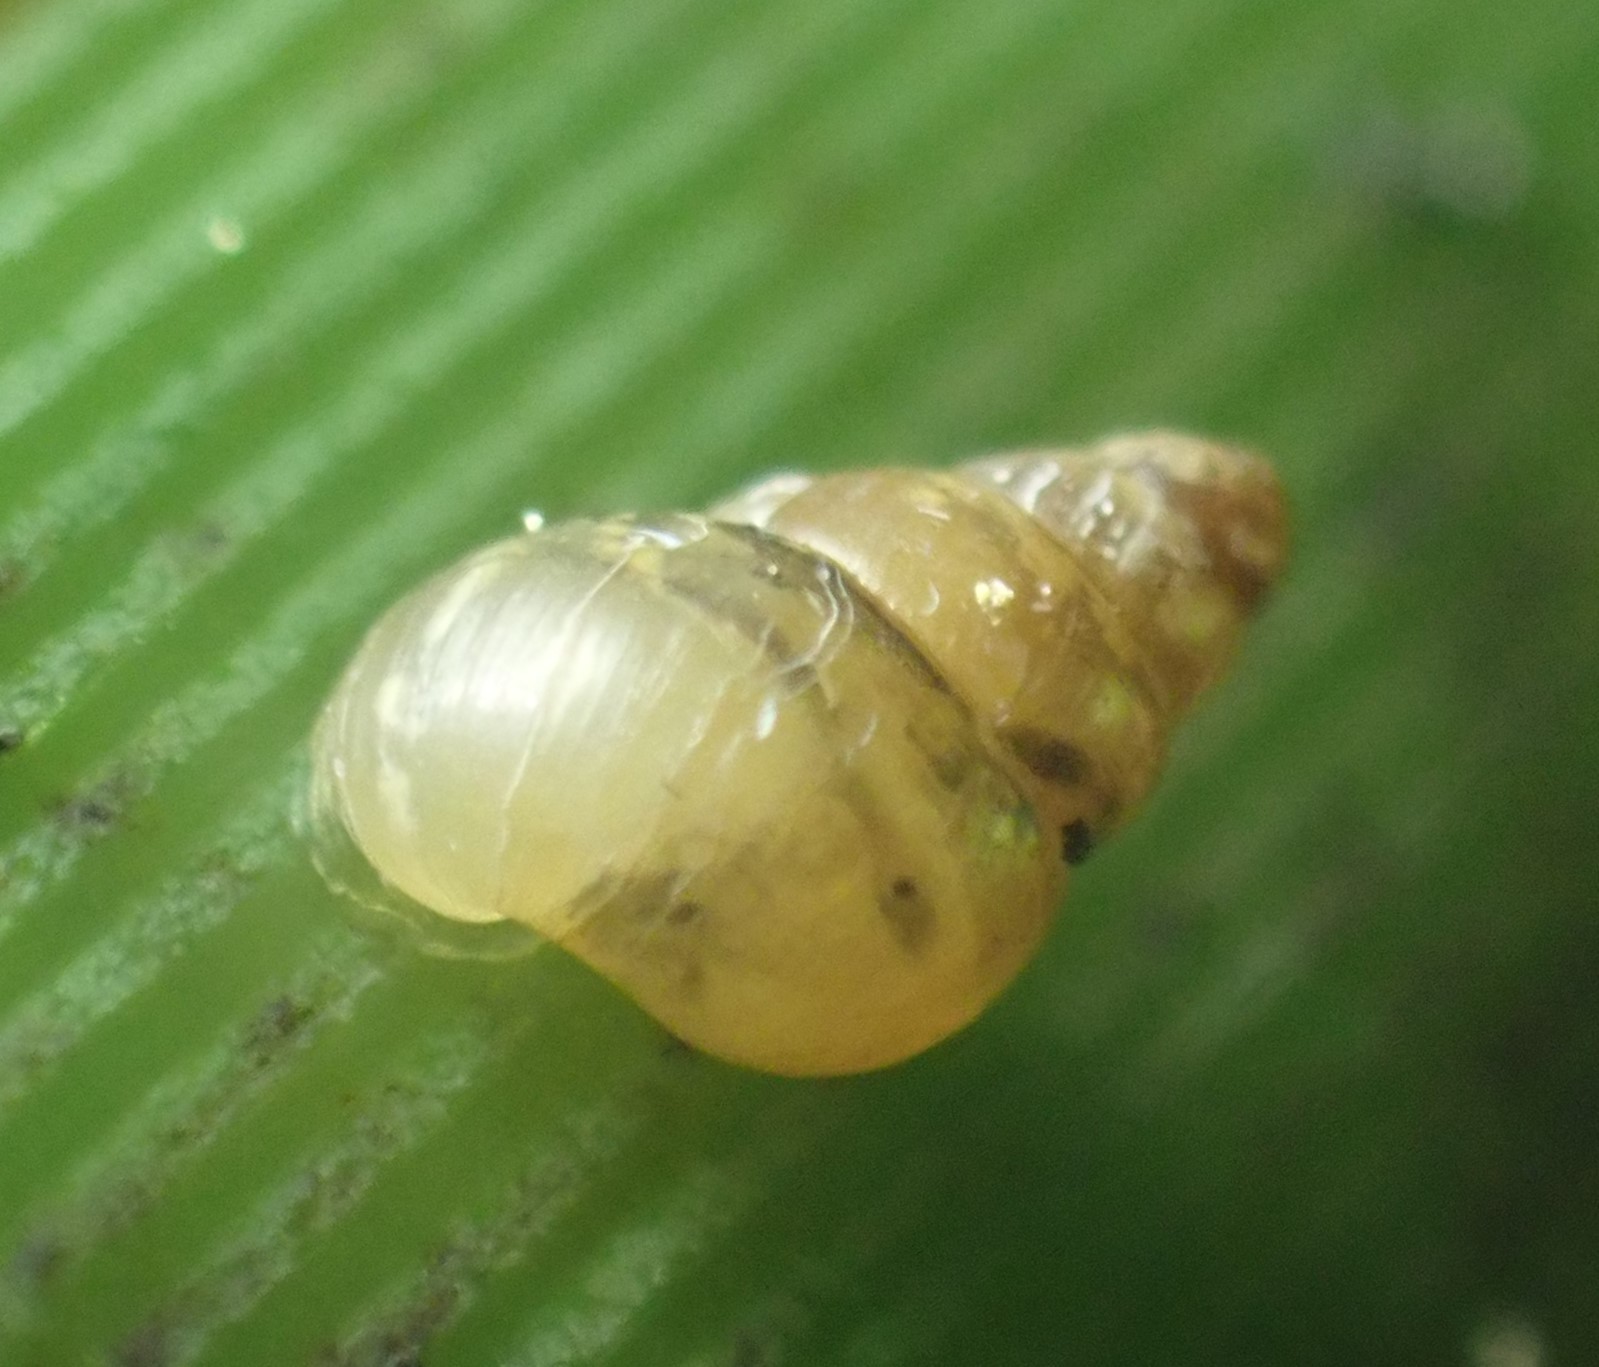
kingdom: Animalia
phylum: Mollusca
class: Gastropoda
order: Stylommatophora
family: Achatinellidae
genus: Tornatellides
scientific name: Tornatellides subperforatus
